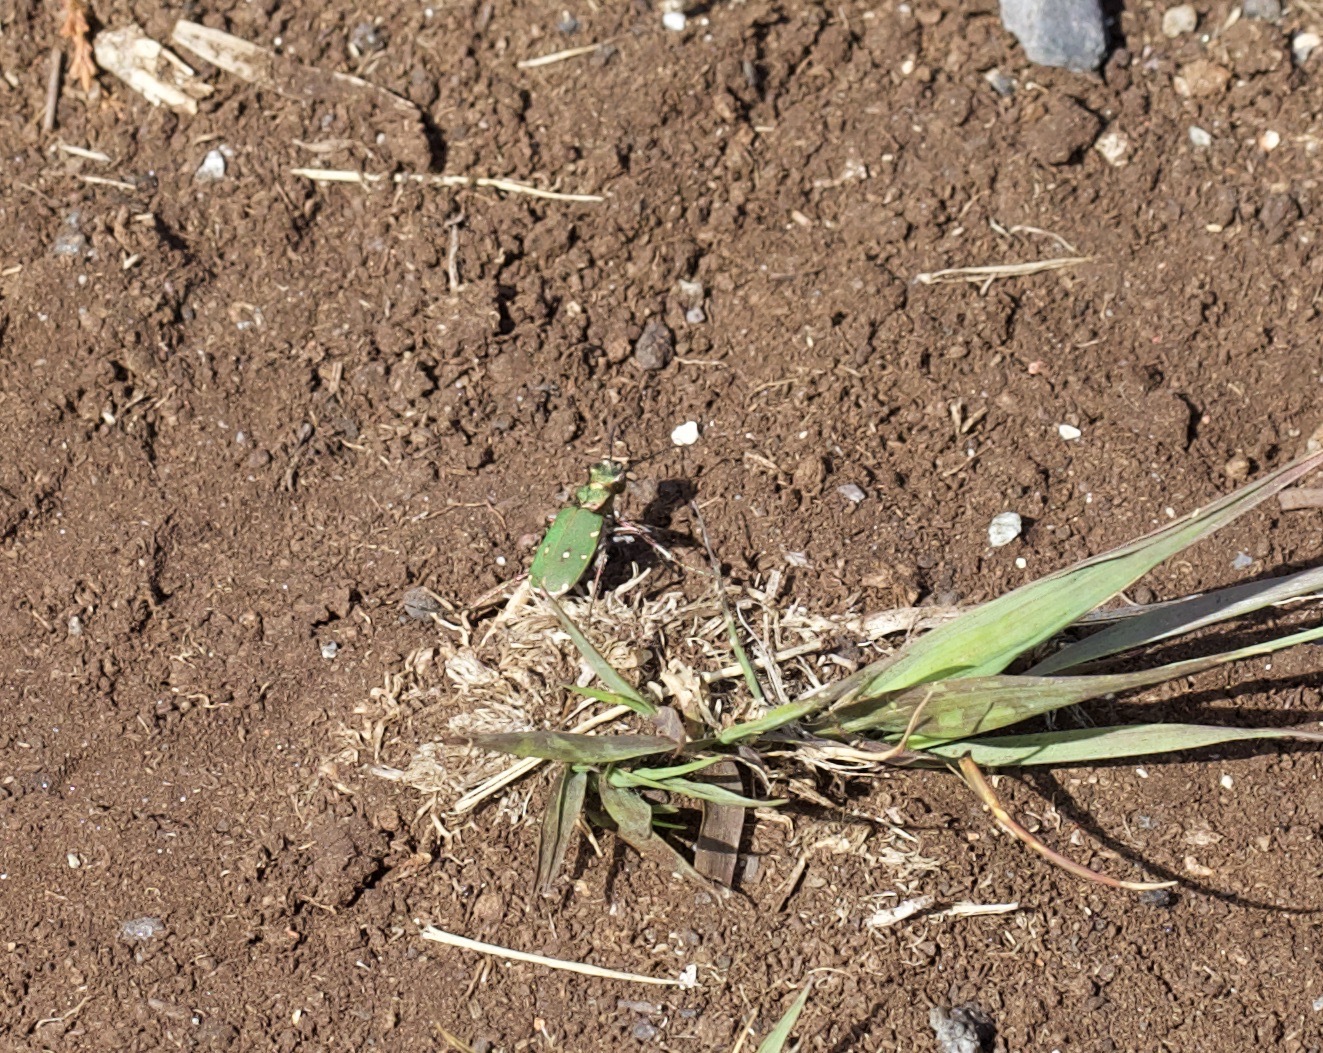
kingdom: Animalia
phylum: Arthropoda
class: Insecta
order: Coleoptera
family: Carabidae
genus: Cicindela
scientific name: Cicindela campestris
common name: Common tiger beetle
